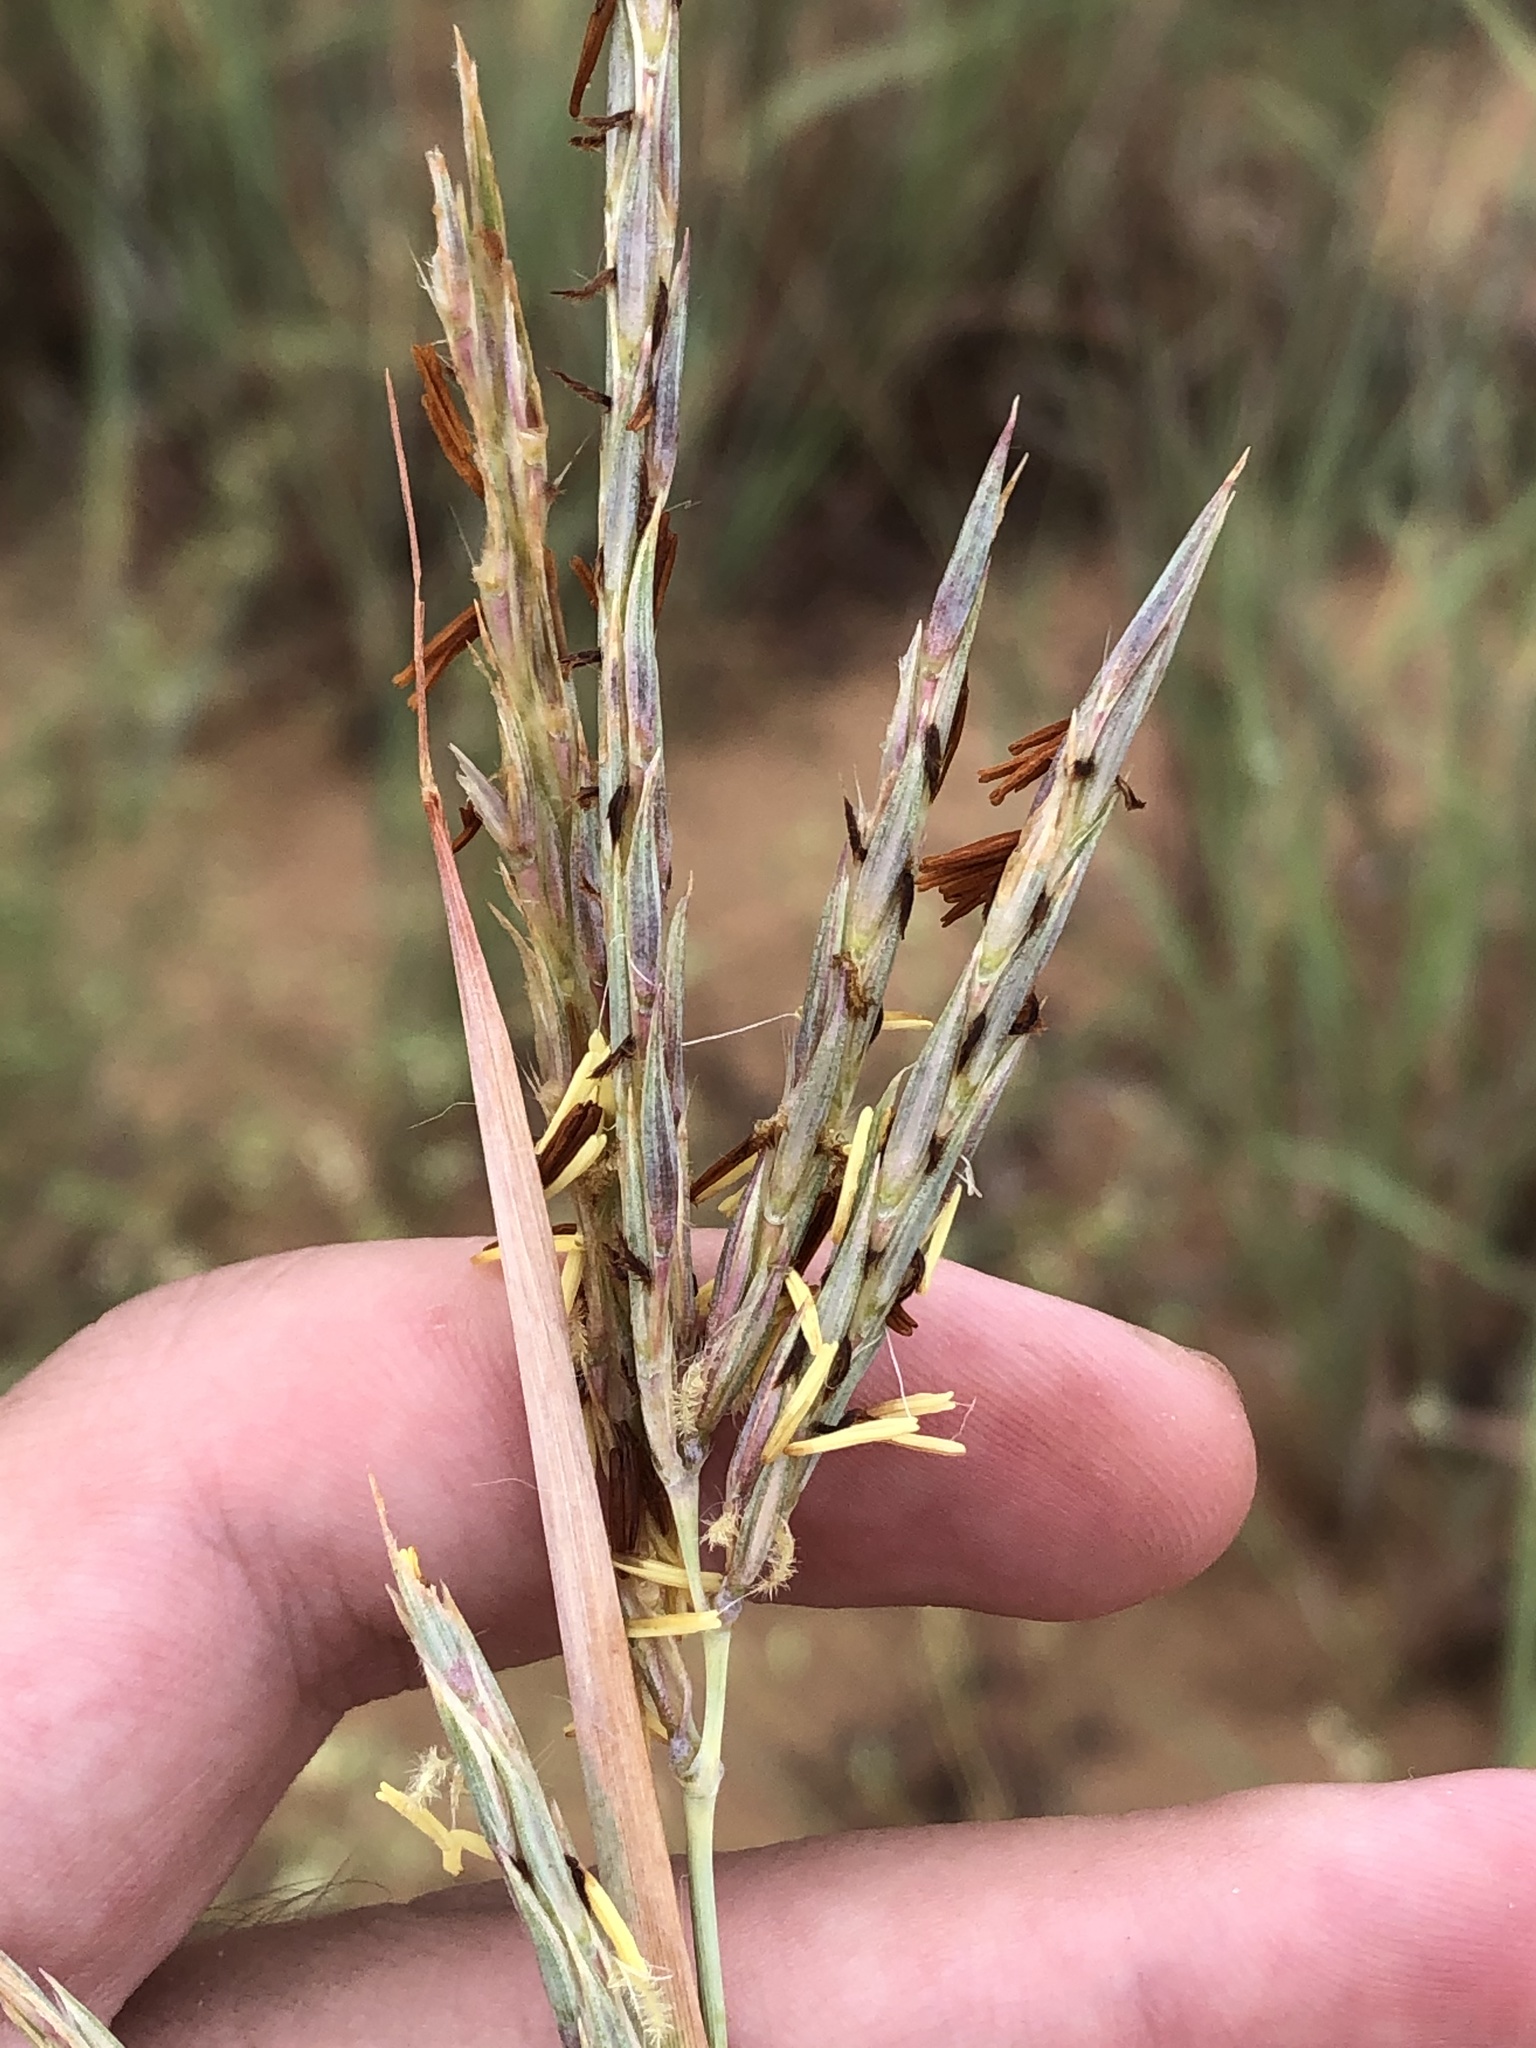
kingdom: Plantae
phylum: Tracheophyta
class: Liliopsida
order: Poales
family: Poaceae
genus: Andropogon
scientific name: Andropogon gerardi
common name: Big bluestem
